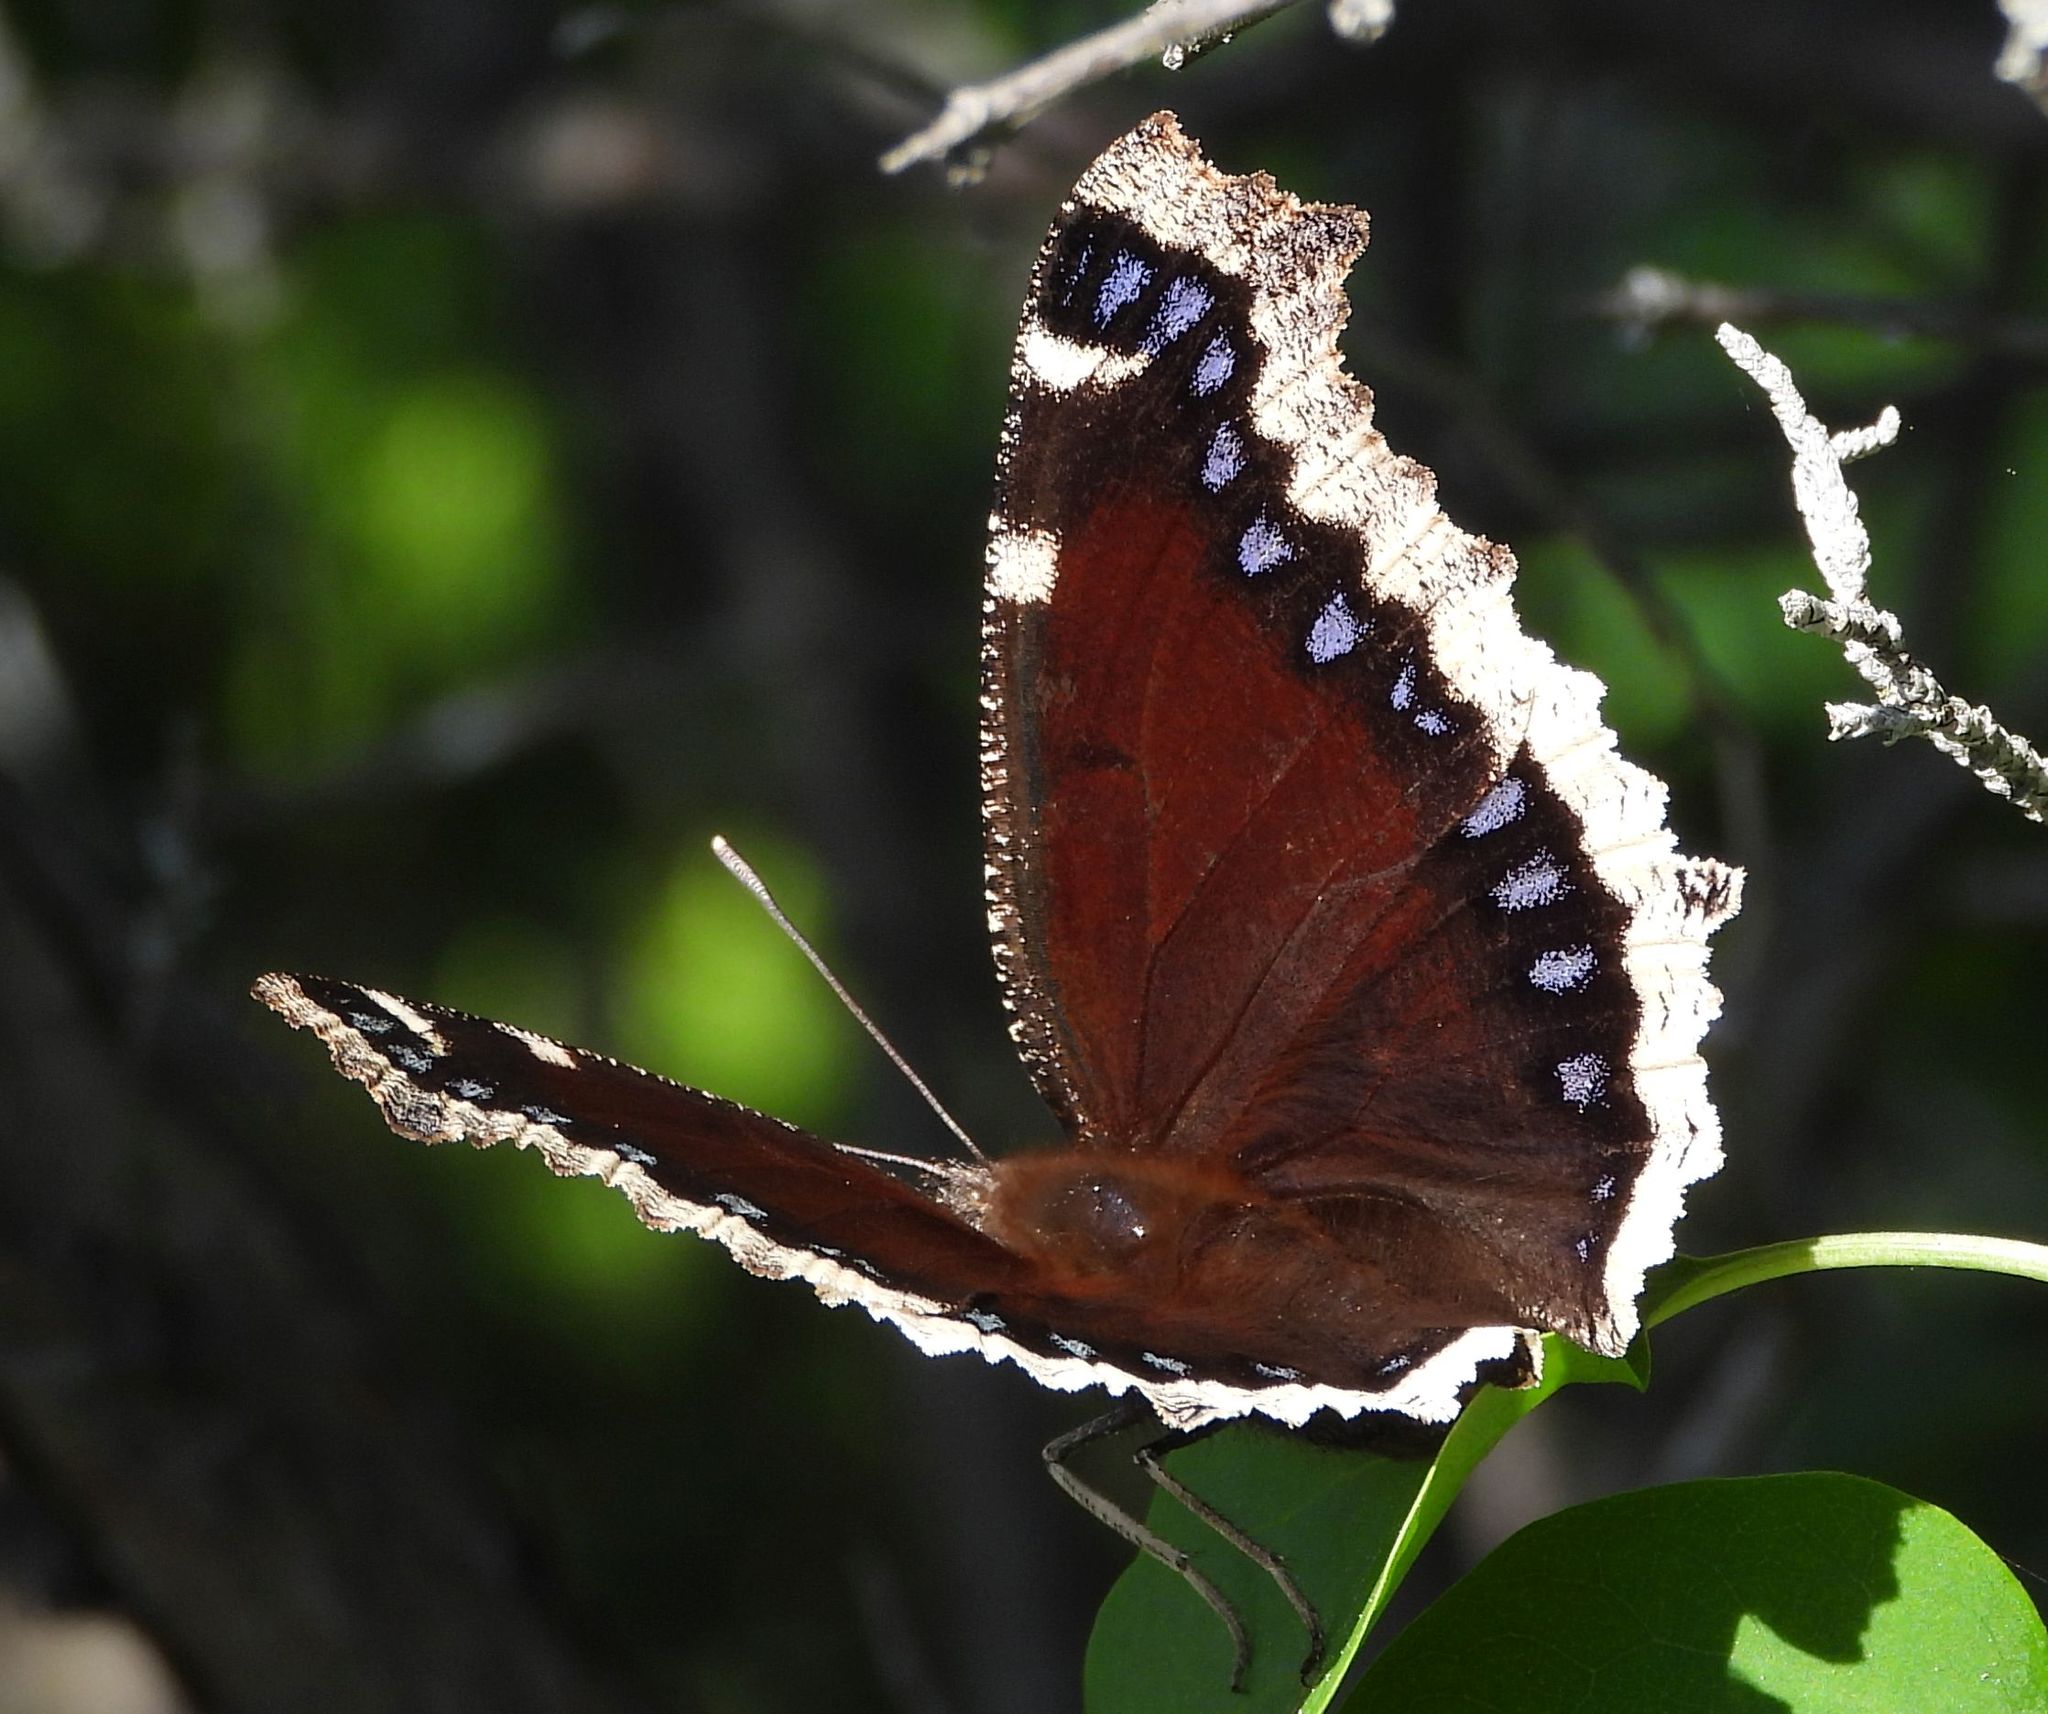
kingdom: Animalia
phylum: Arthropoda
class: Insecta
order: Lepidoptera
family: Nymphalidae
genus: Nymphalis
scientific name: Nymphalis antiopa
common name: Camberwell beauty
